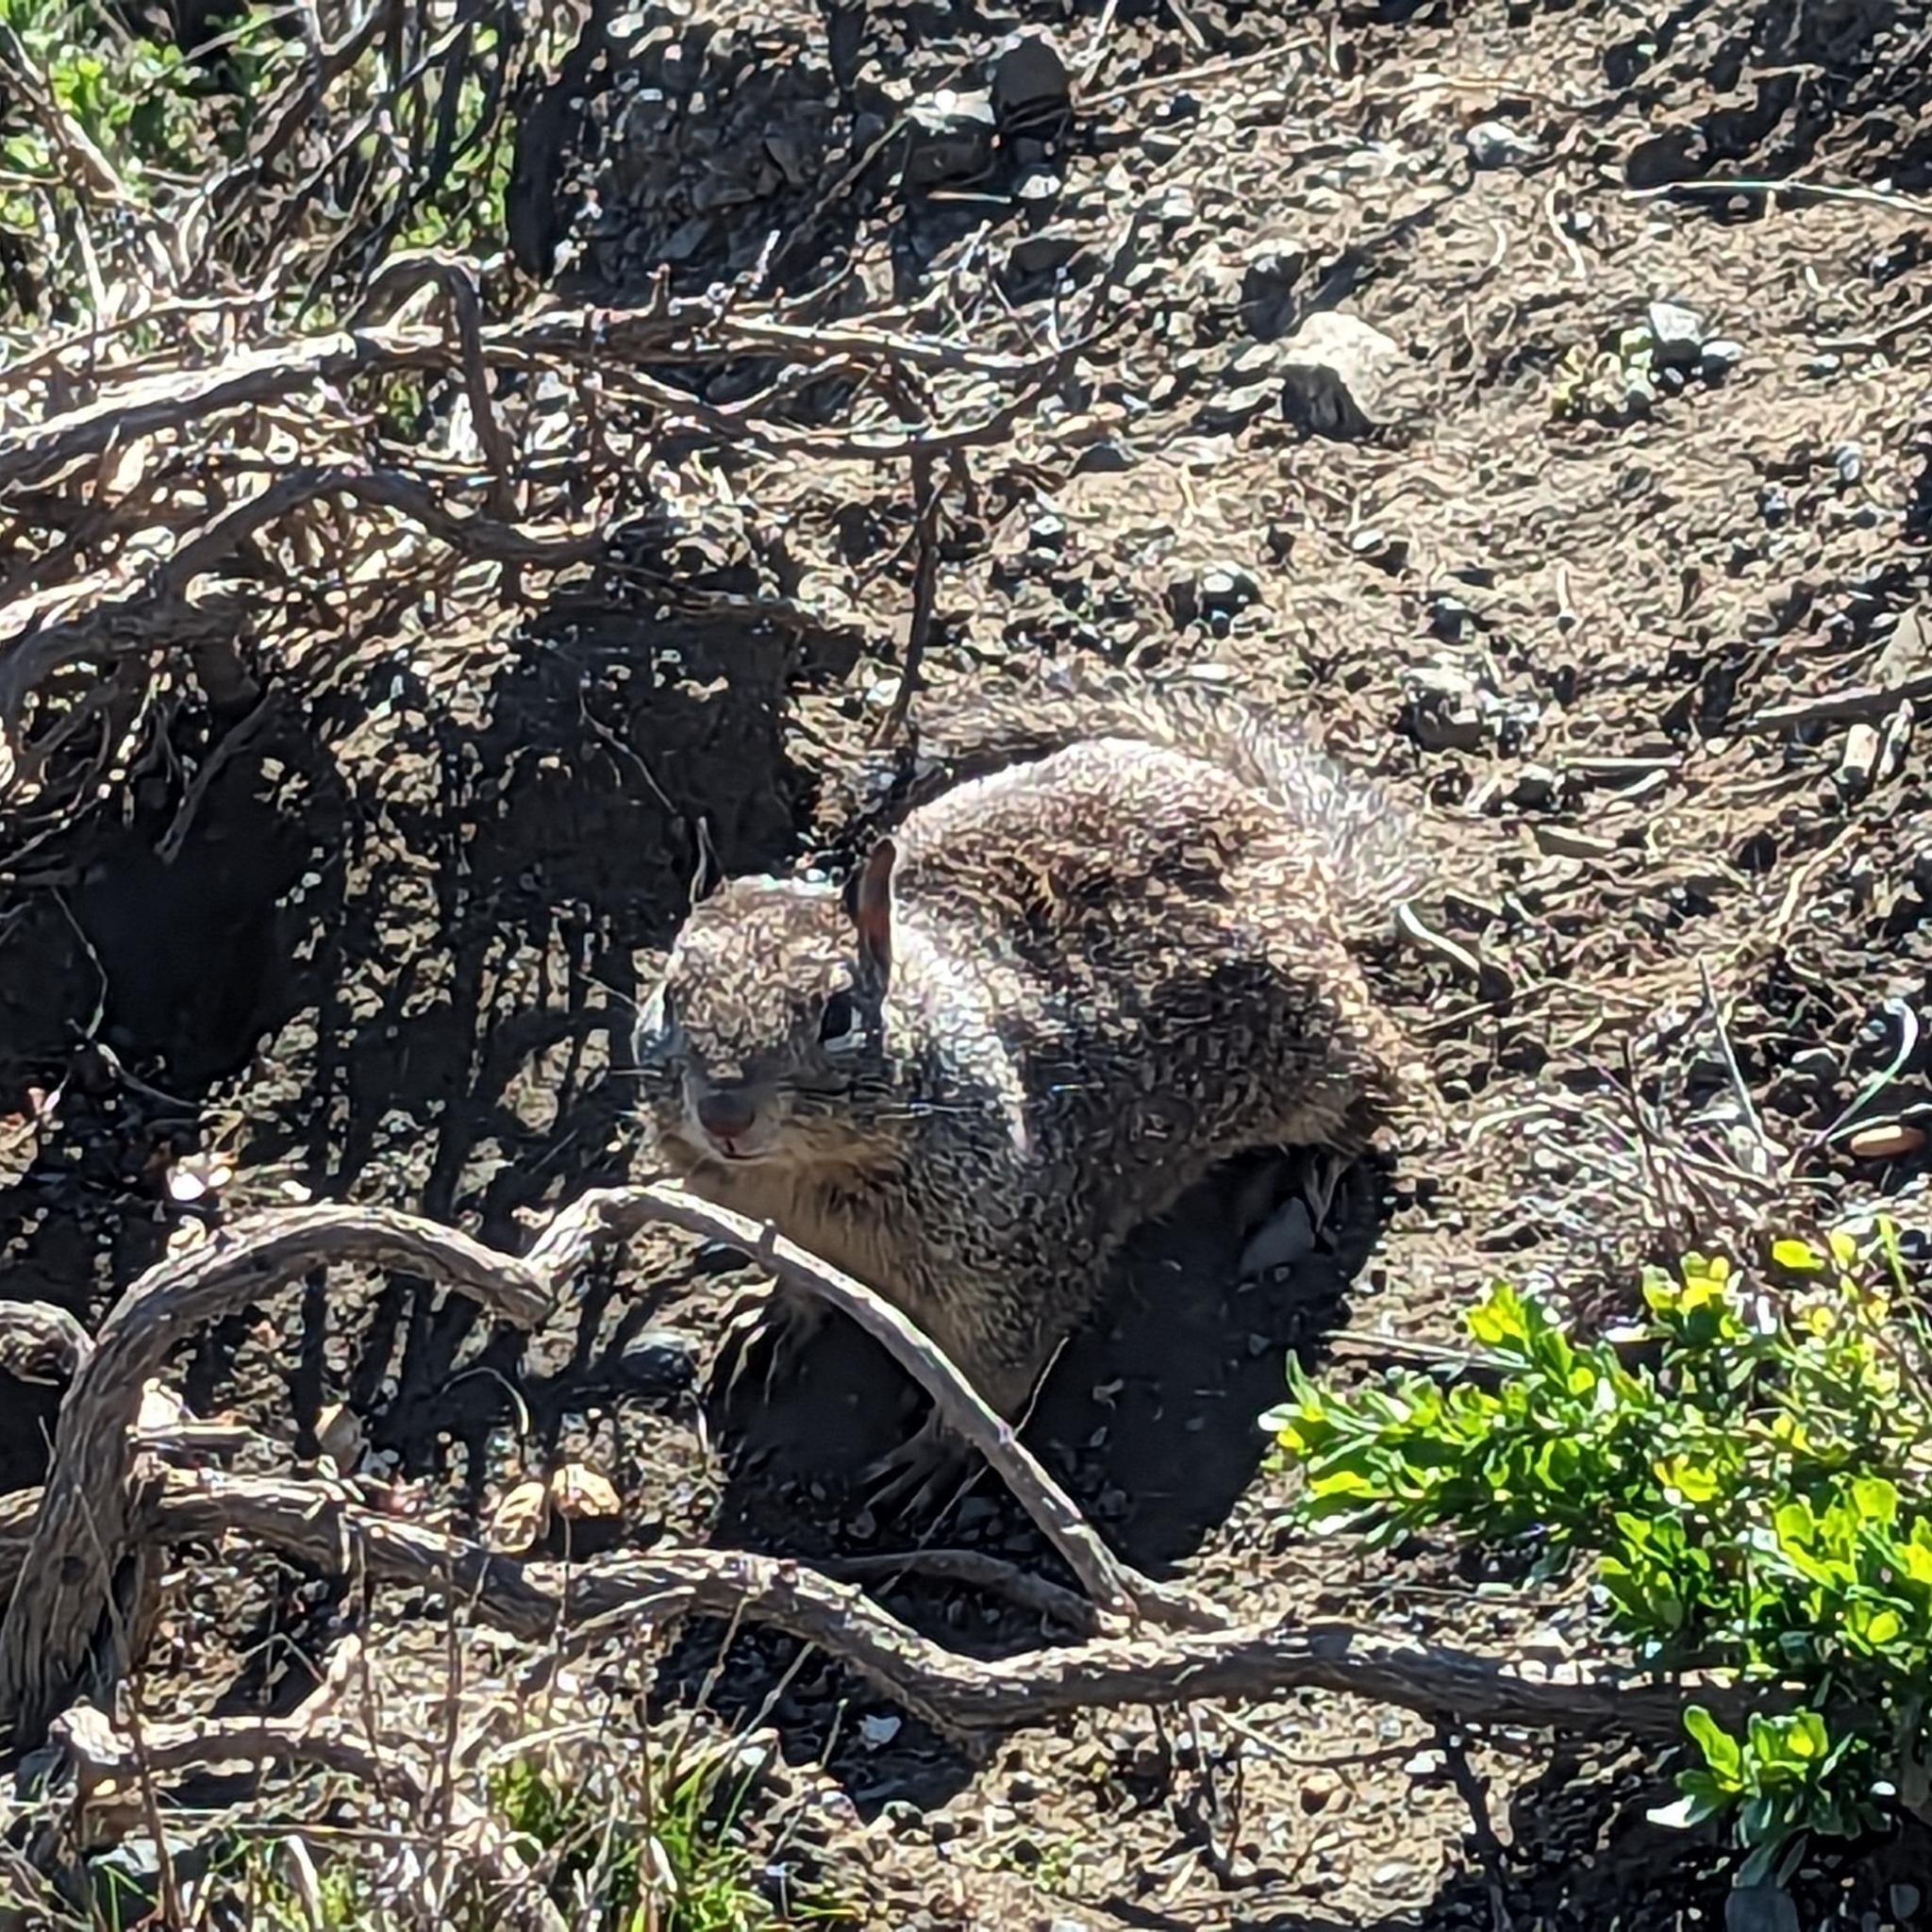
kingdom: Animalia
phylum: Chordata
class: Mammalia
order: Rodentia
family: Sciuridae
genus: Otospermophilus
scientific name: Otospermophilus beecheyi
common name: California ground squirrel
